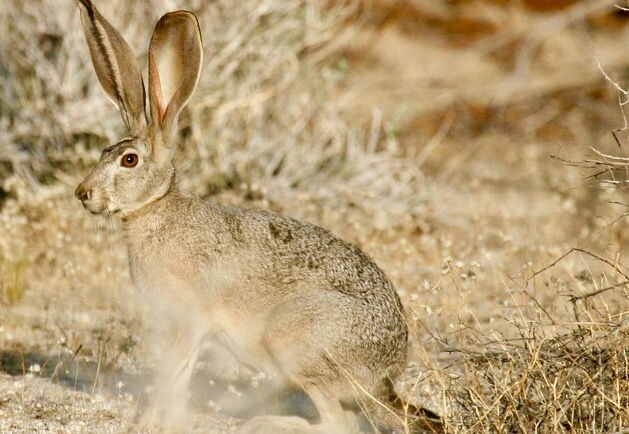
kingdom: Animalia
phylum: Chordata
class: Mammalia
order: Lagomorpha
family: Leporidae
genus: Lepus
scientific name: Lepus californicus
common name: Black-tailed jackrabbit
